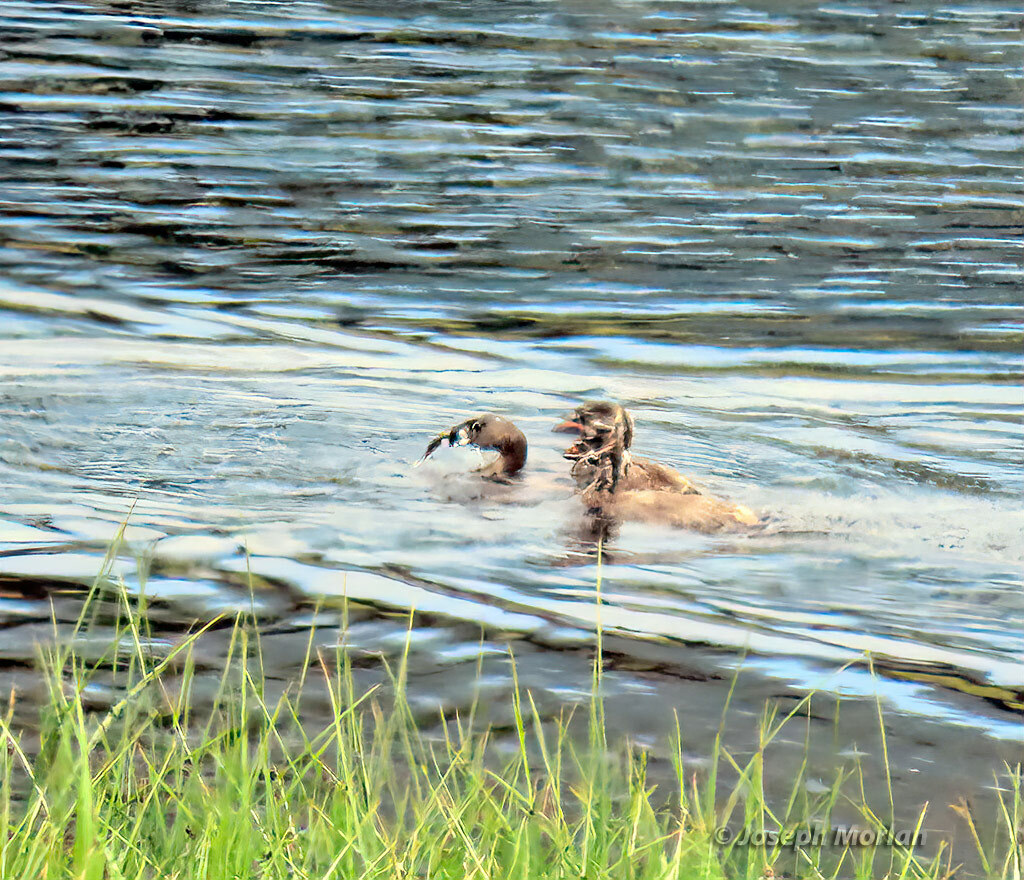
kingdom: Animalia
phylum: Chordata
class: Aves
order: Podicipediformes
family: Podicipedidae
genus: Podilymbus
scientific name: Podilymbus podiceps
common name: Pied-billed grebe
